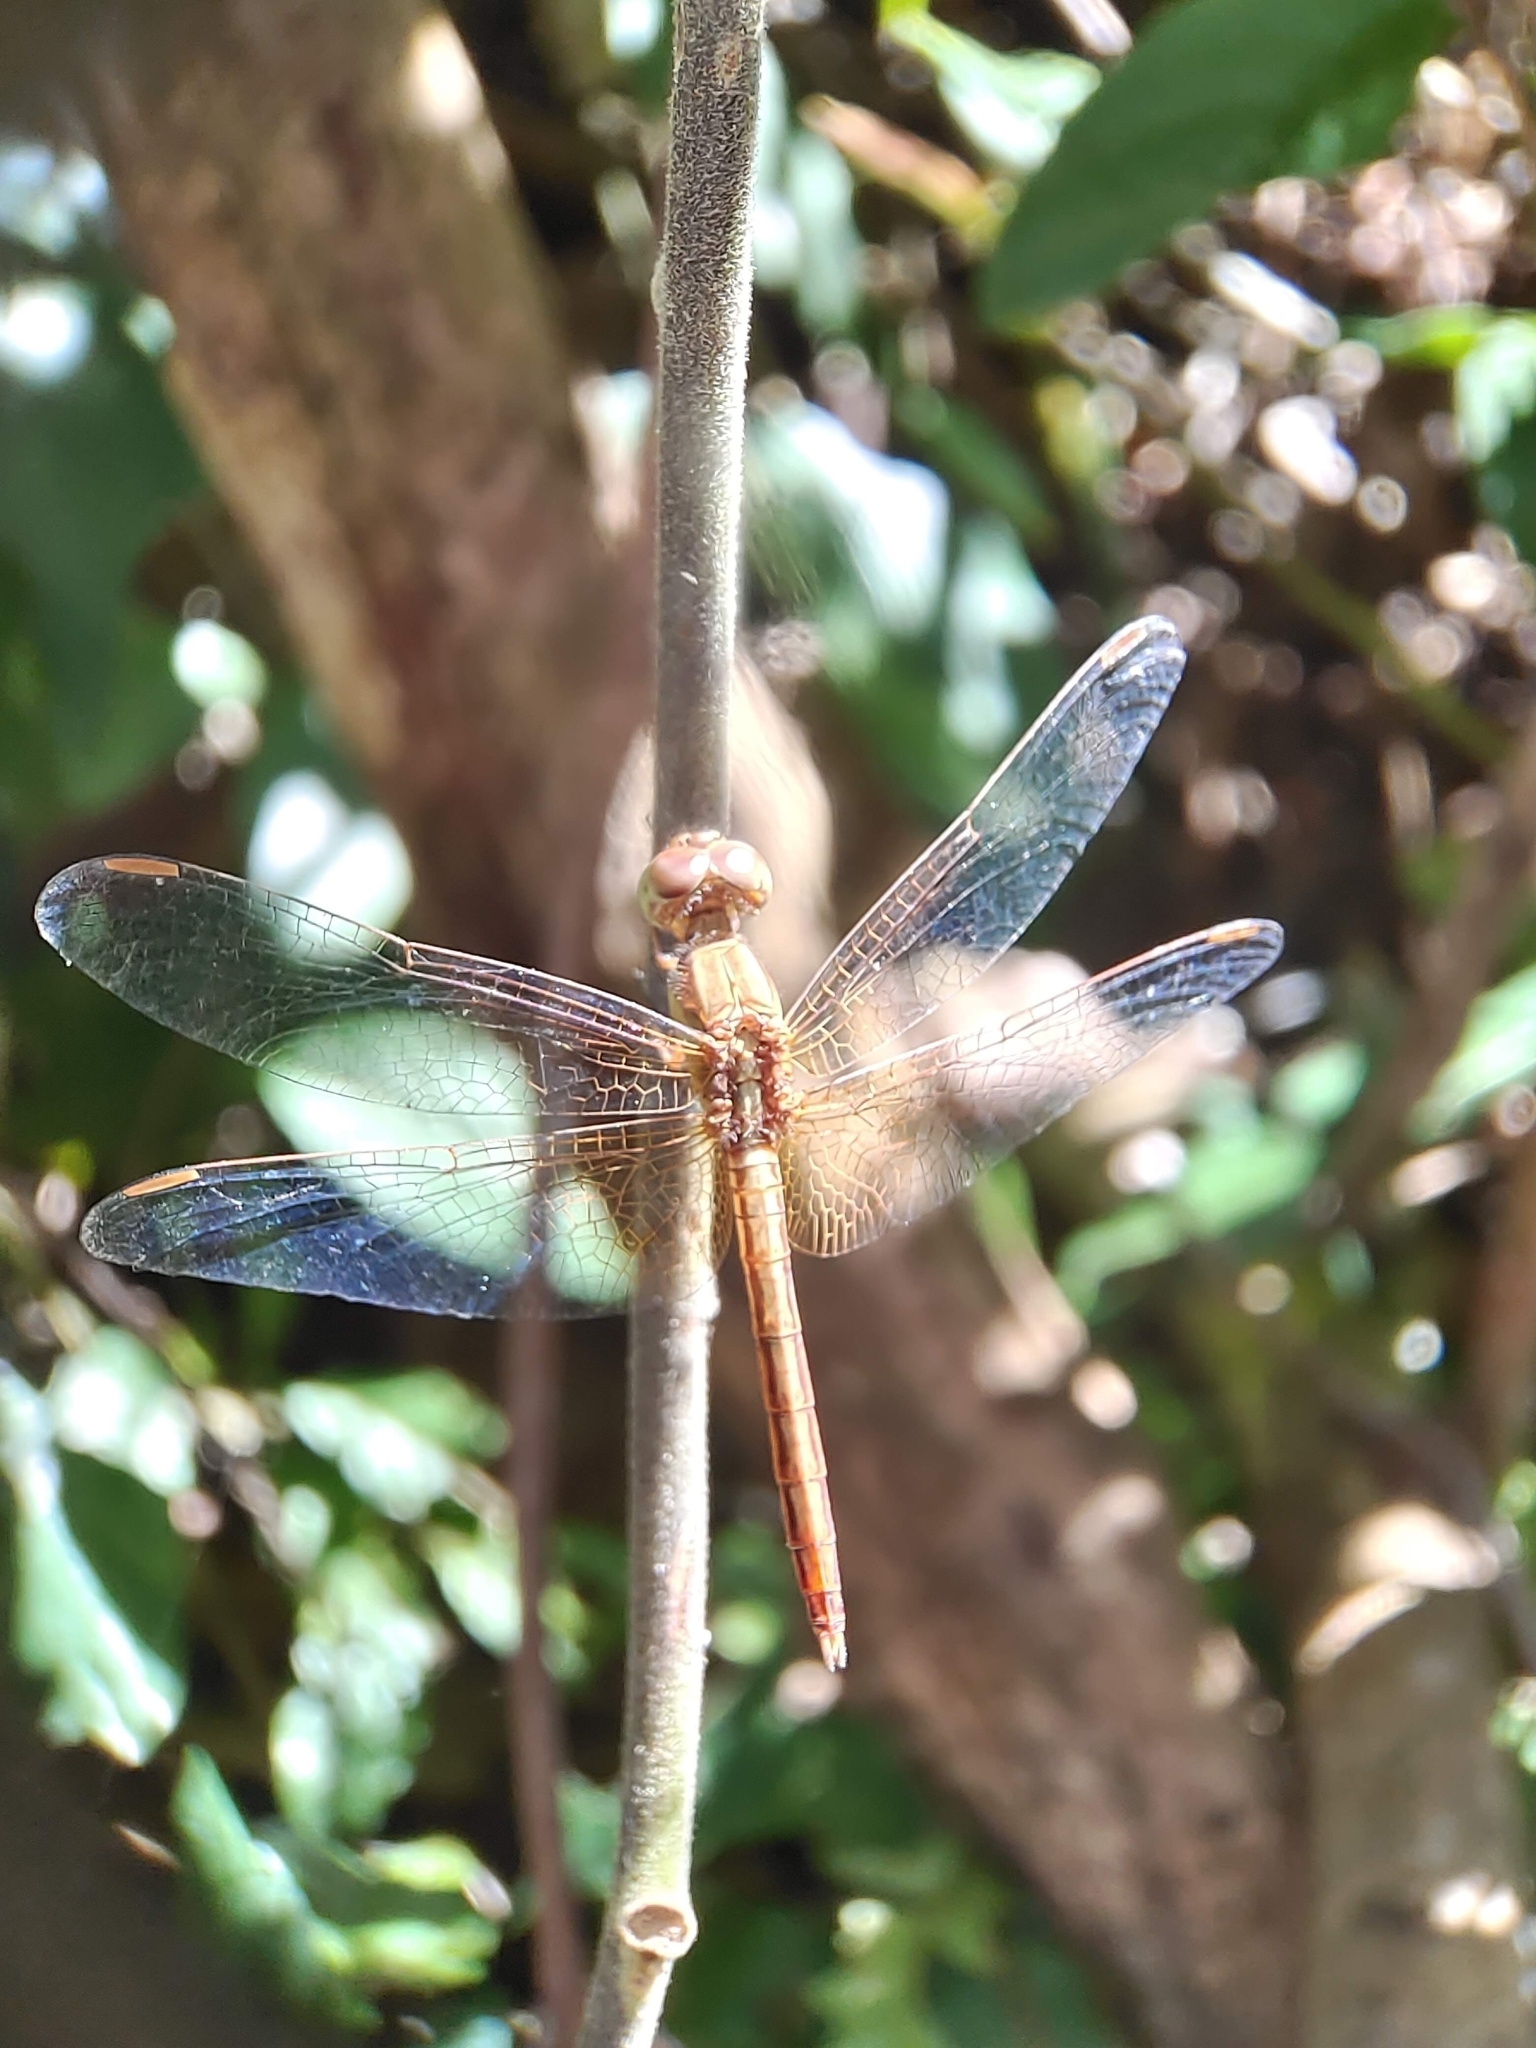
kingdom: Animalia
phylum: Arthropoda
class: Insecta
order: Odonata
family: Libellulidae
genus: Neurothemis
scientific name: Neurothemis intermedia
